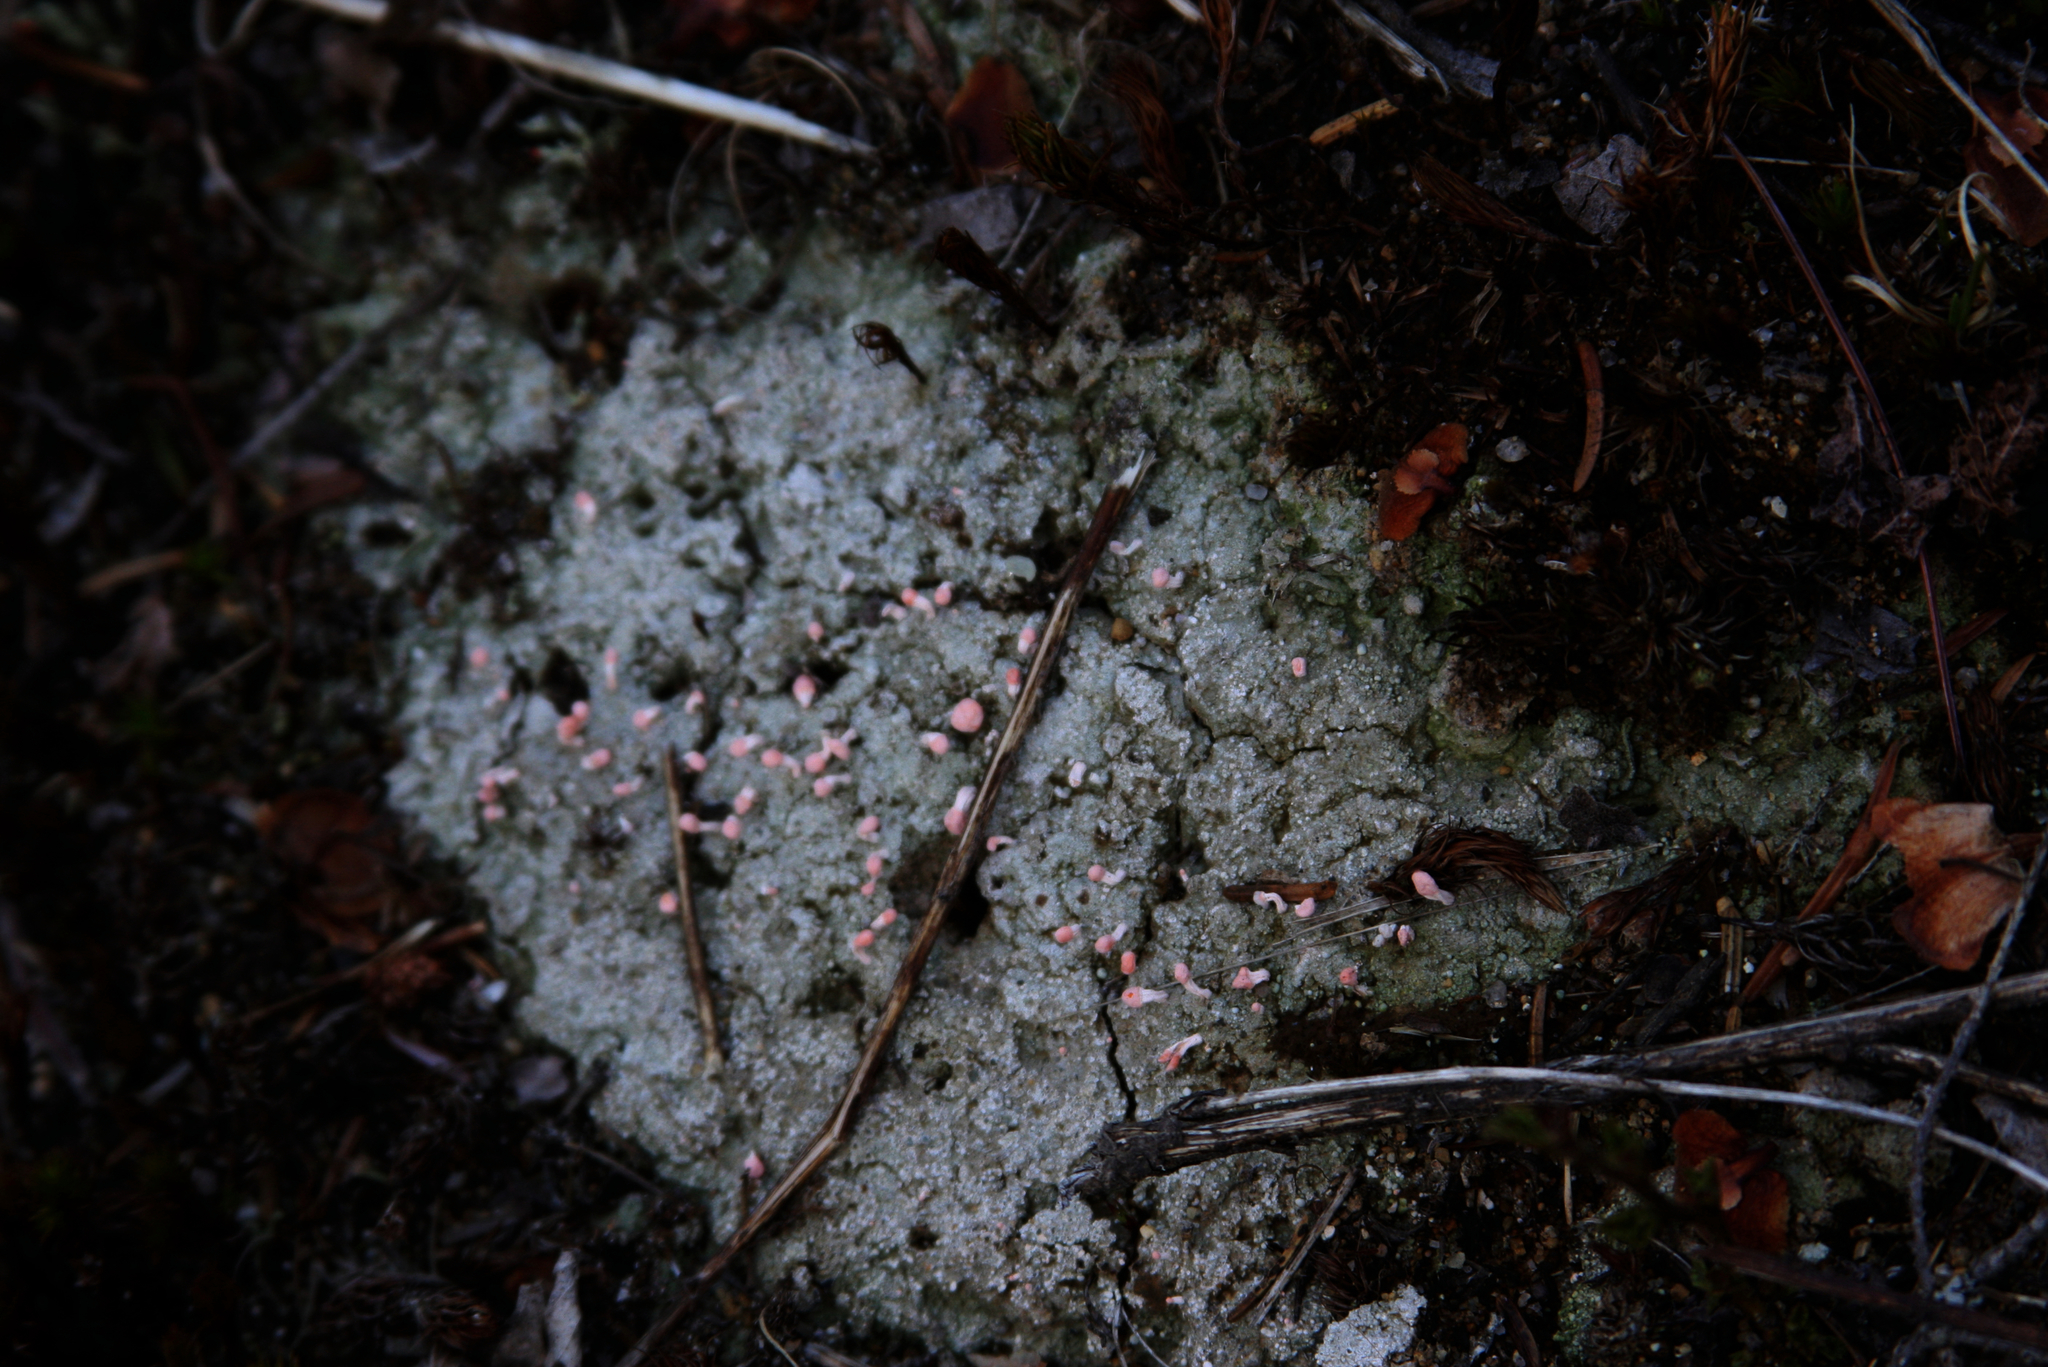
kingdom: Fungi
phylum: Ascomycota
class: Lecanoromycetes
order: Pertusariales
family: Icmadophilaceae
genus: Dibaeis
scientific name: Dibaeis baeomyces
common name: Pink earth lichen
